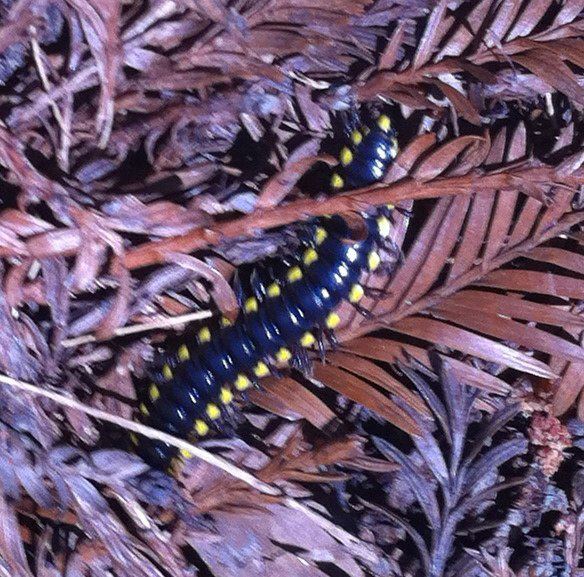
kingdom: Animalia
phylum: Arthropoda
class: Diplopoda
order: Polydesmida
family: Xystodesmidae
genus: Harpaphe
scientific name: Harpaphe haydeniana
